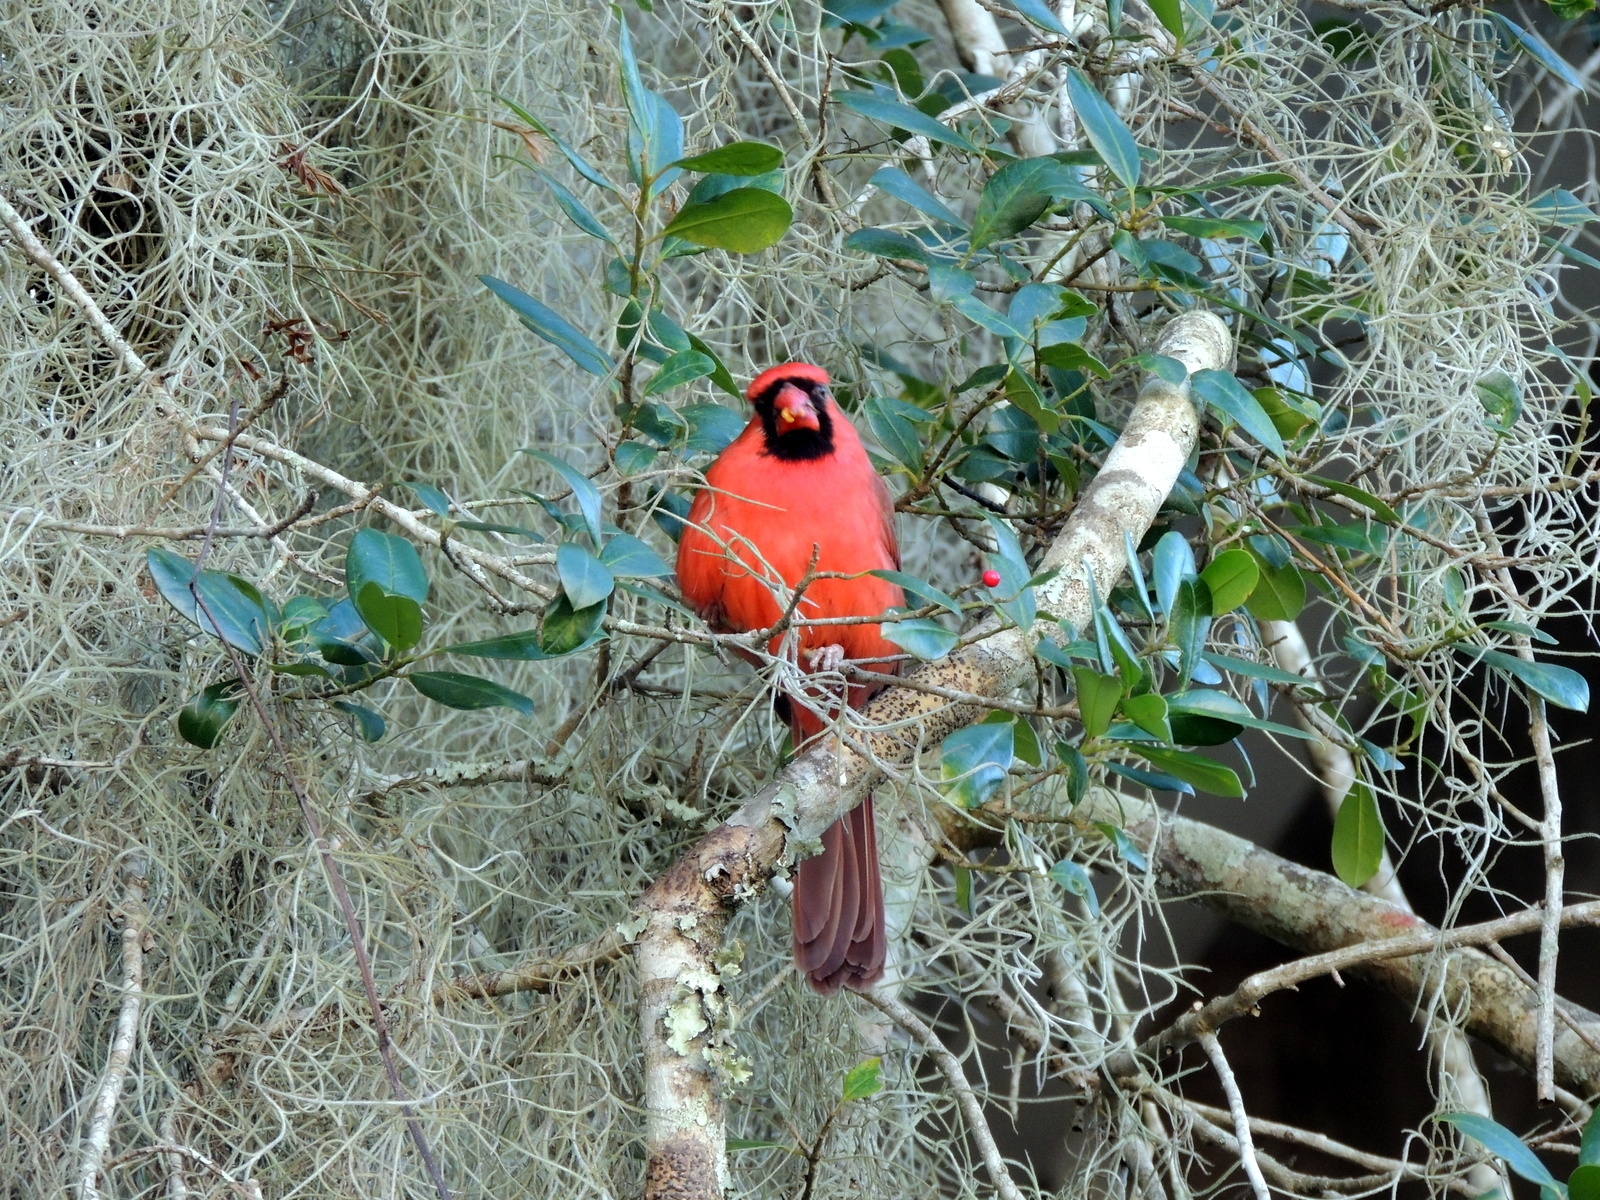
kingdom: Animalia
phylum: Chordata
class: Aves
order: Passeriformes
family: Cardinalidae
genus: Cardinalis
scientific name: Cardinalis cardinalis
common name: Northern cardinal
